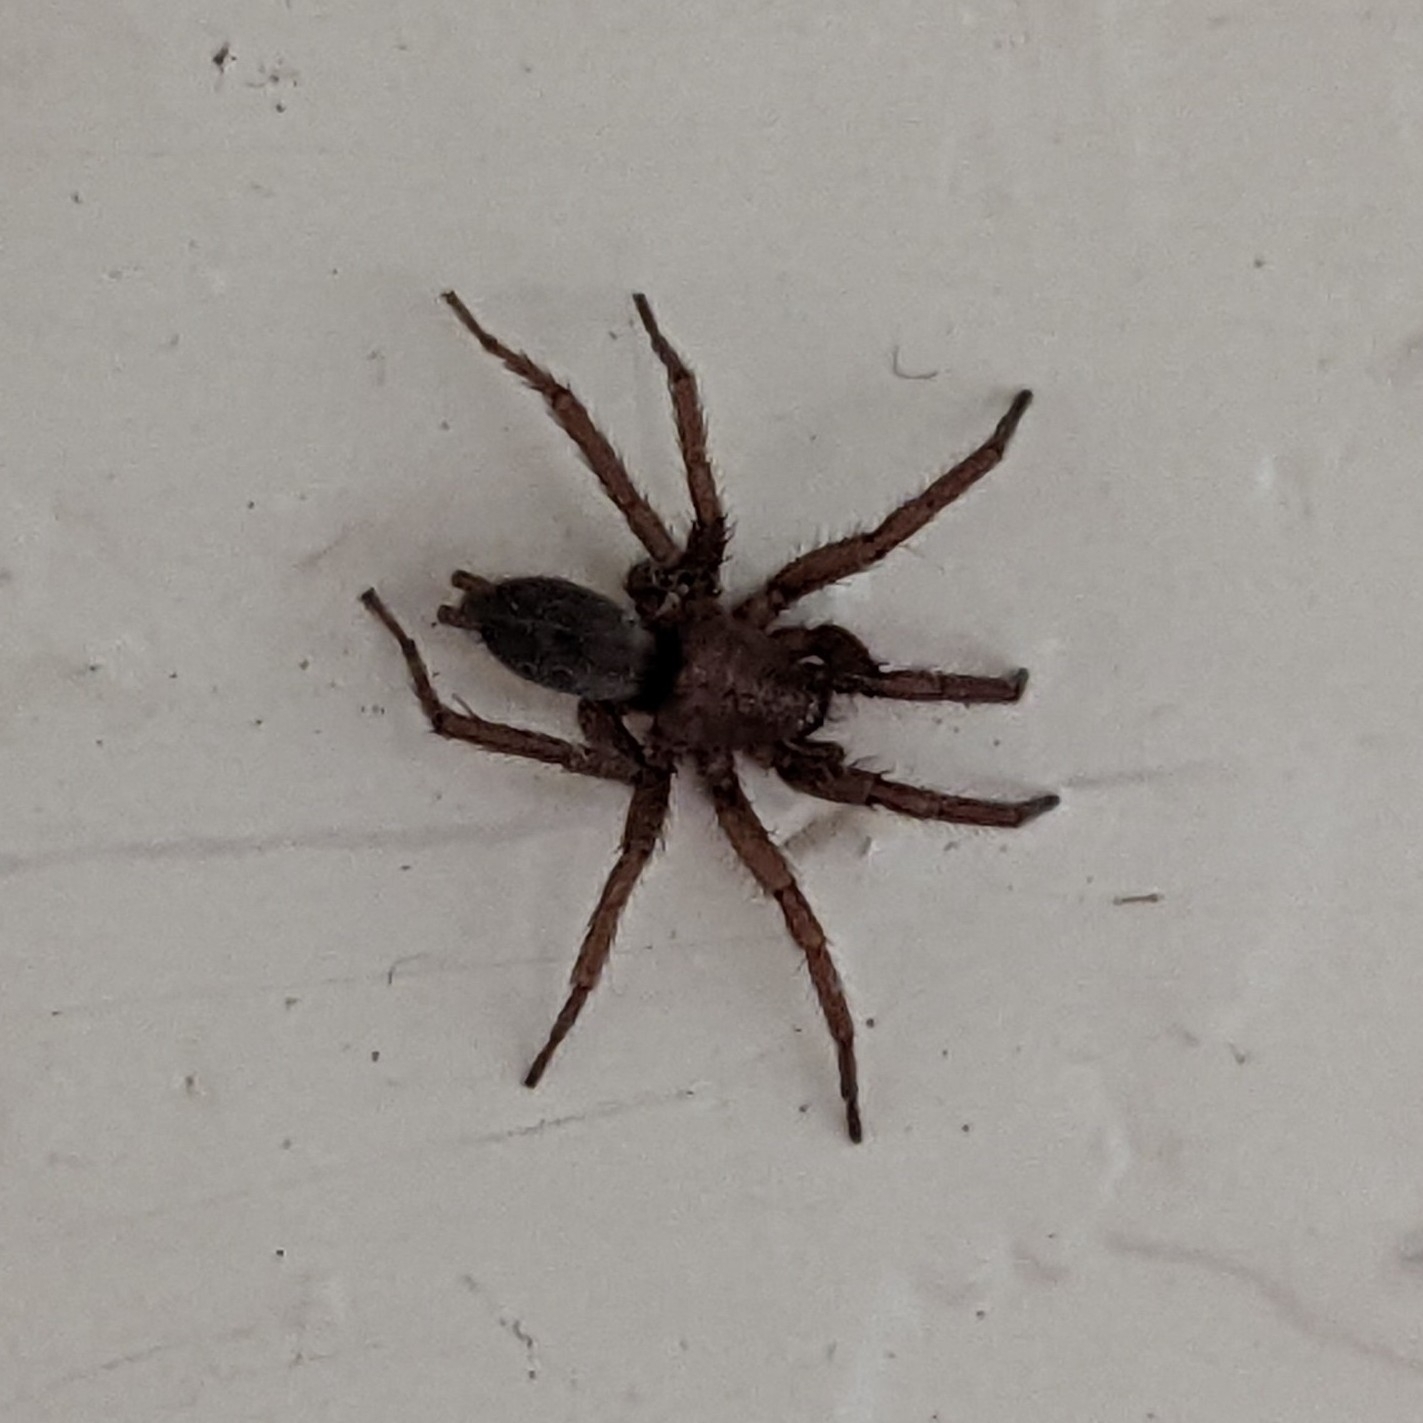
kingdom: Animalia
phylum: Arthropoda
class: Arachnida
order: Araneae
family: Gnaphosidae
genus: Scotophaeus
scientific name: Scotophaeus blackwalli
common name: Mouse spider
